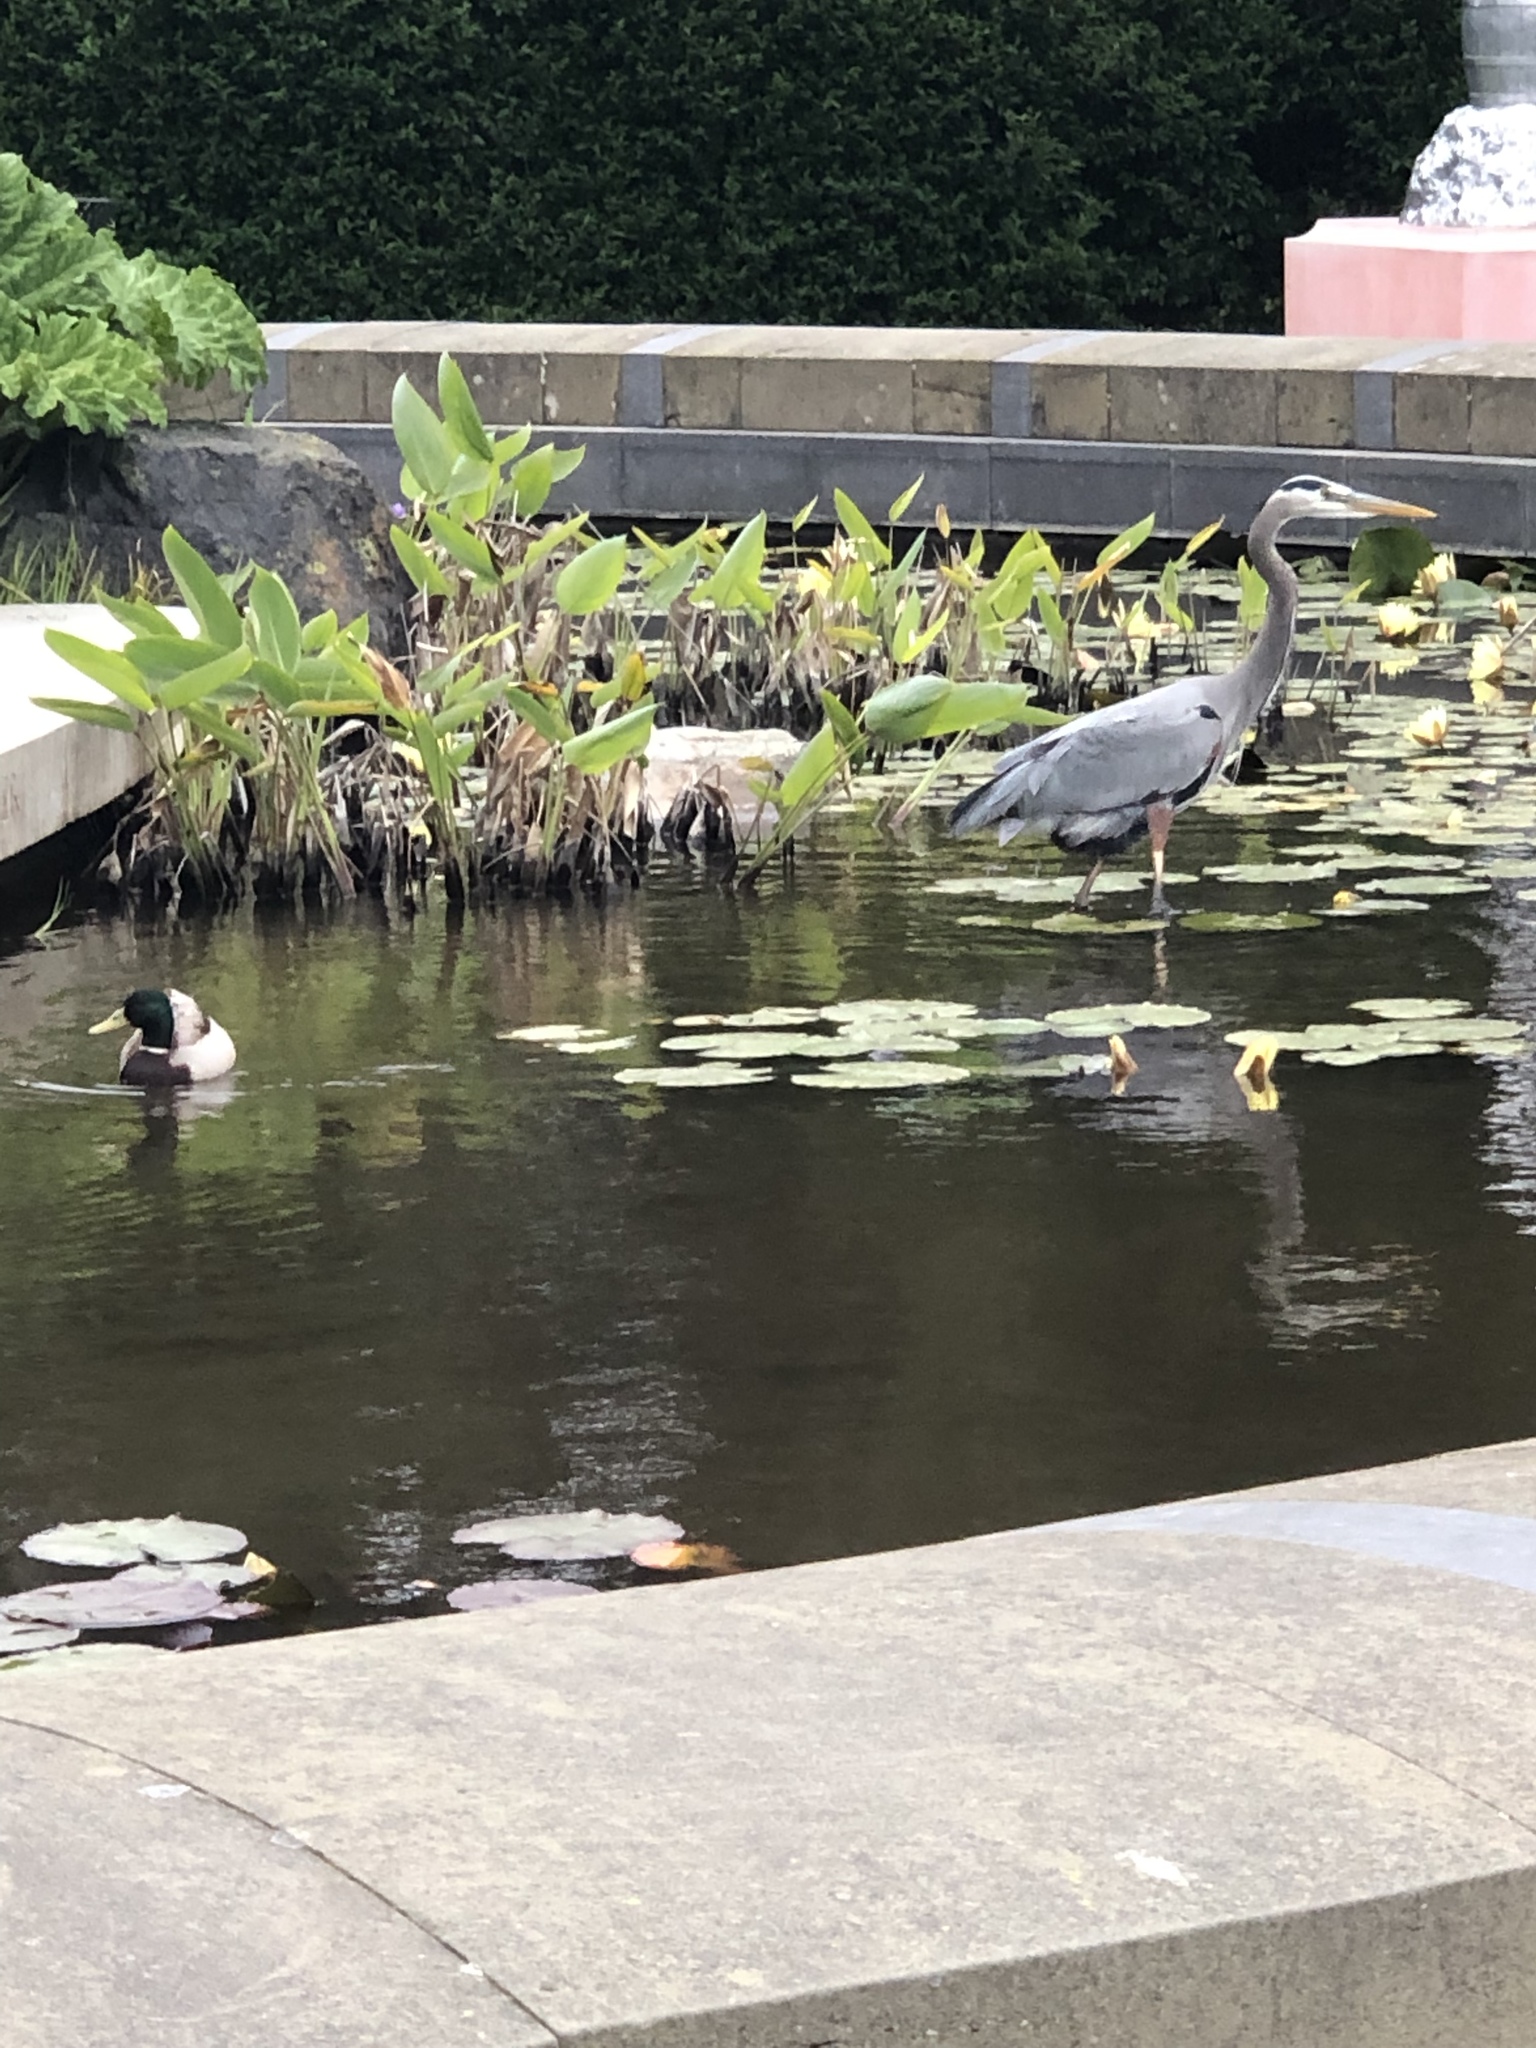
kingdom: Animalia
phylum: Chordata
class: Aves
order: Pelecaniformes
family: Ardeidae
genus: Ardea
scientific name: Ardea herodias
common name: Great blue heron
